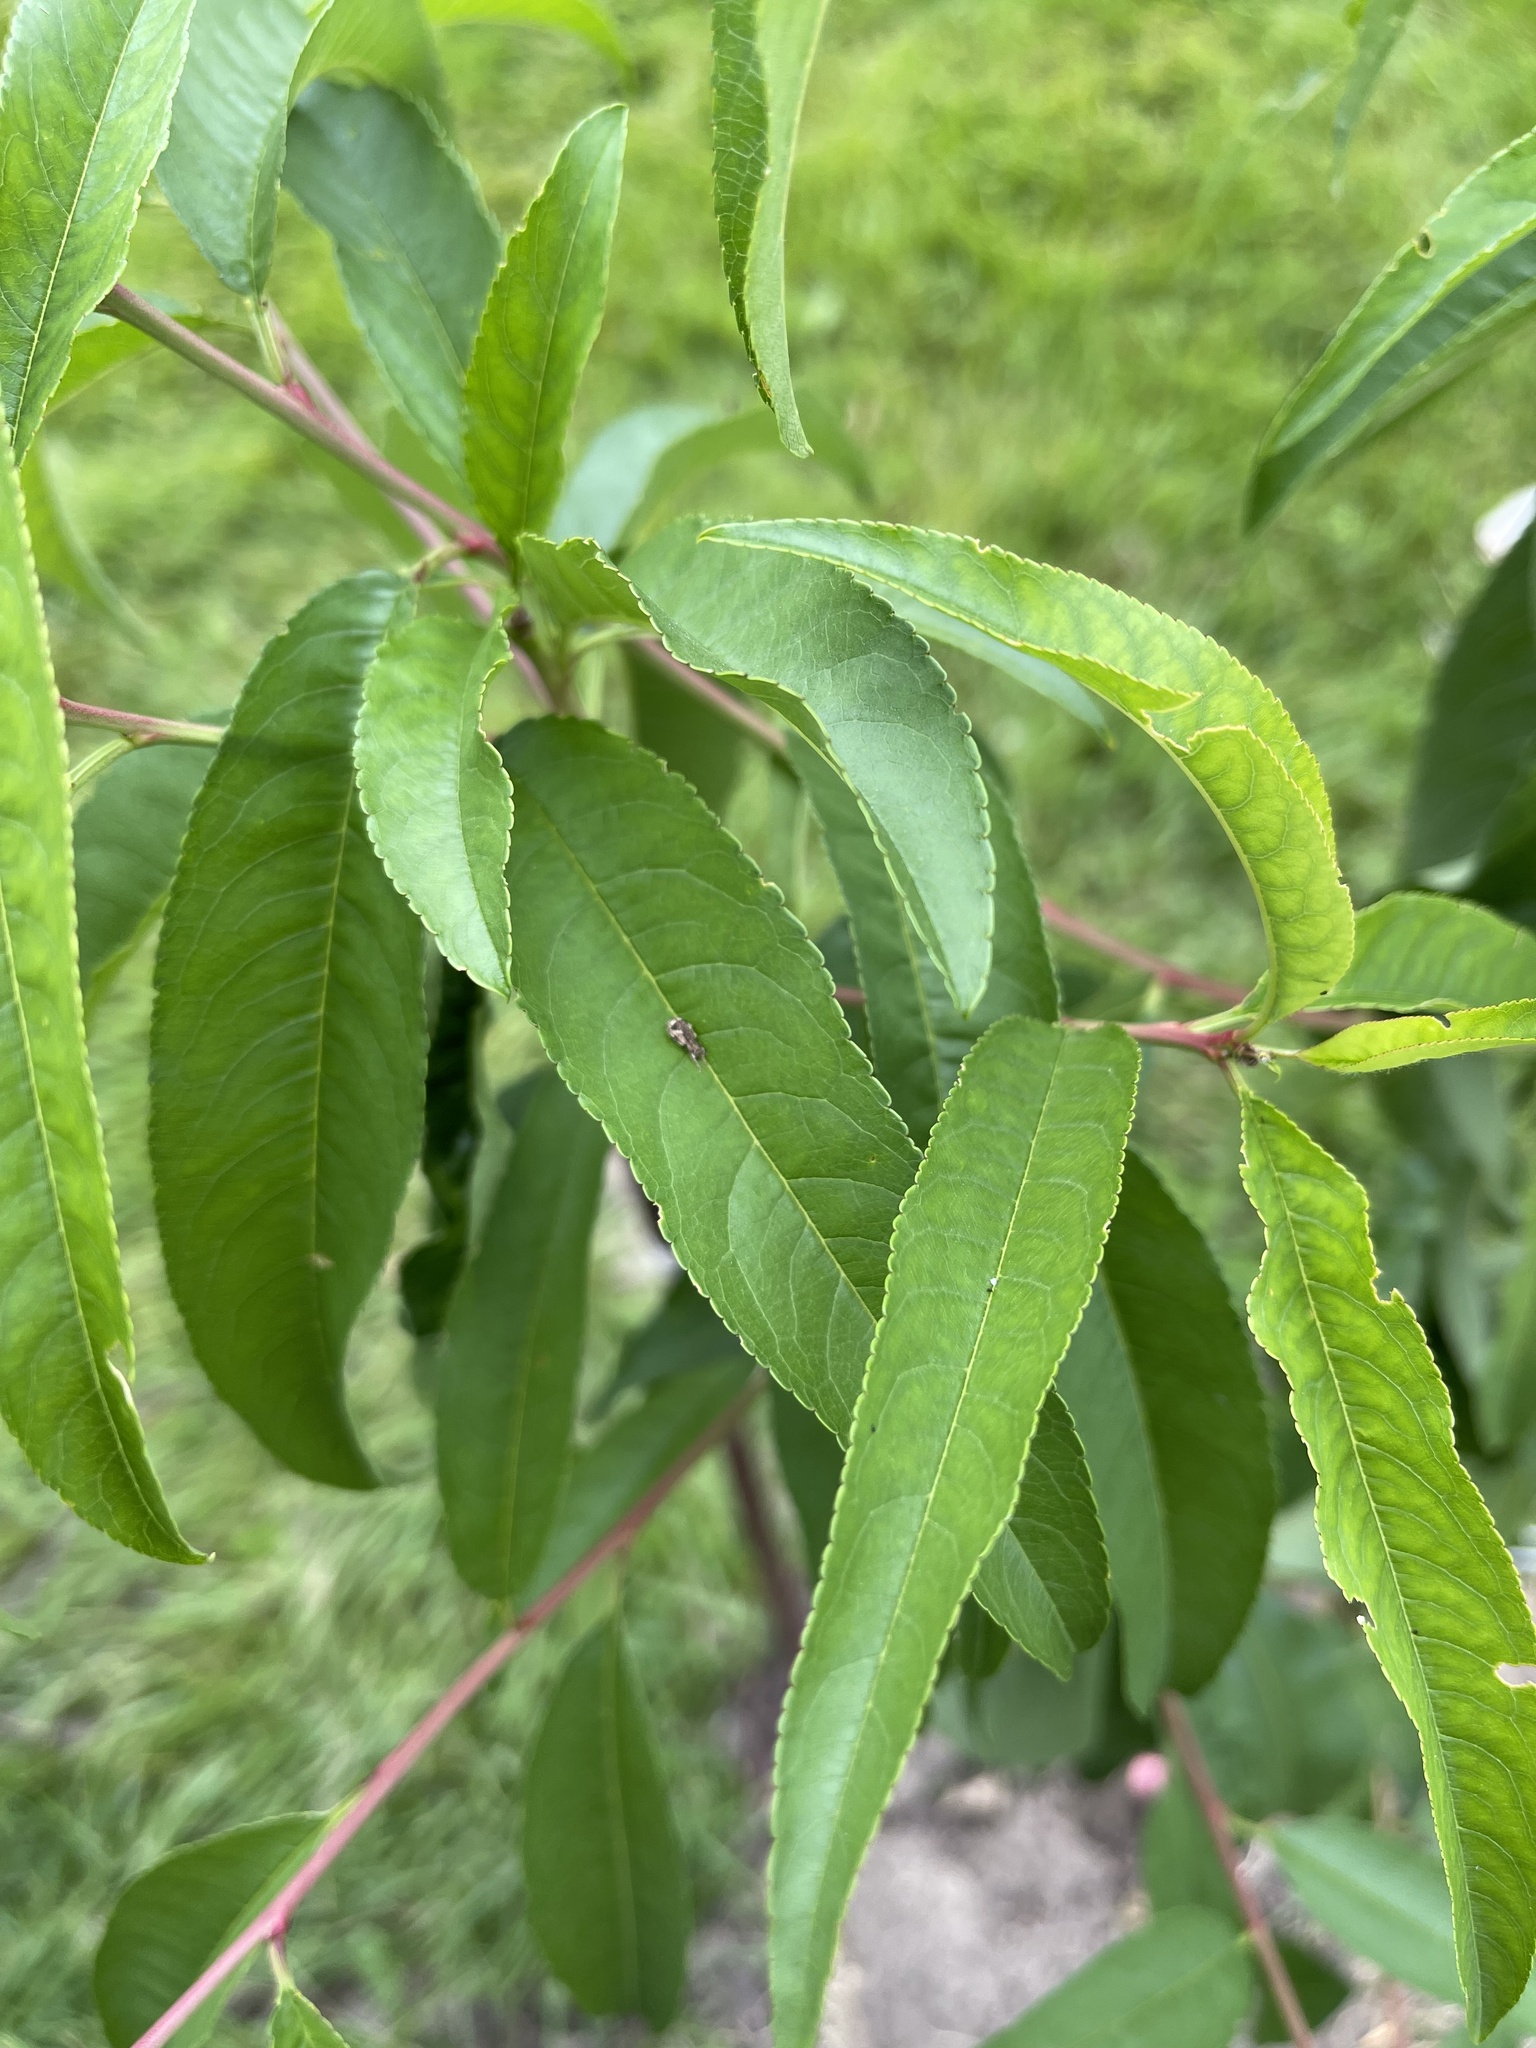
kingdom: Animalia
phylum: Arthropoda
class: Insecta
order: Coleoptera
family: Curculionidae
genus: Pseudoedophrys
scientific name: Pseudoedophrys hilleri
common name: Weevil
